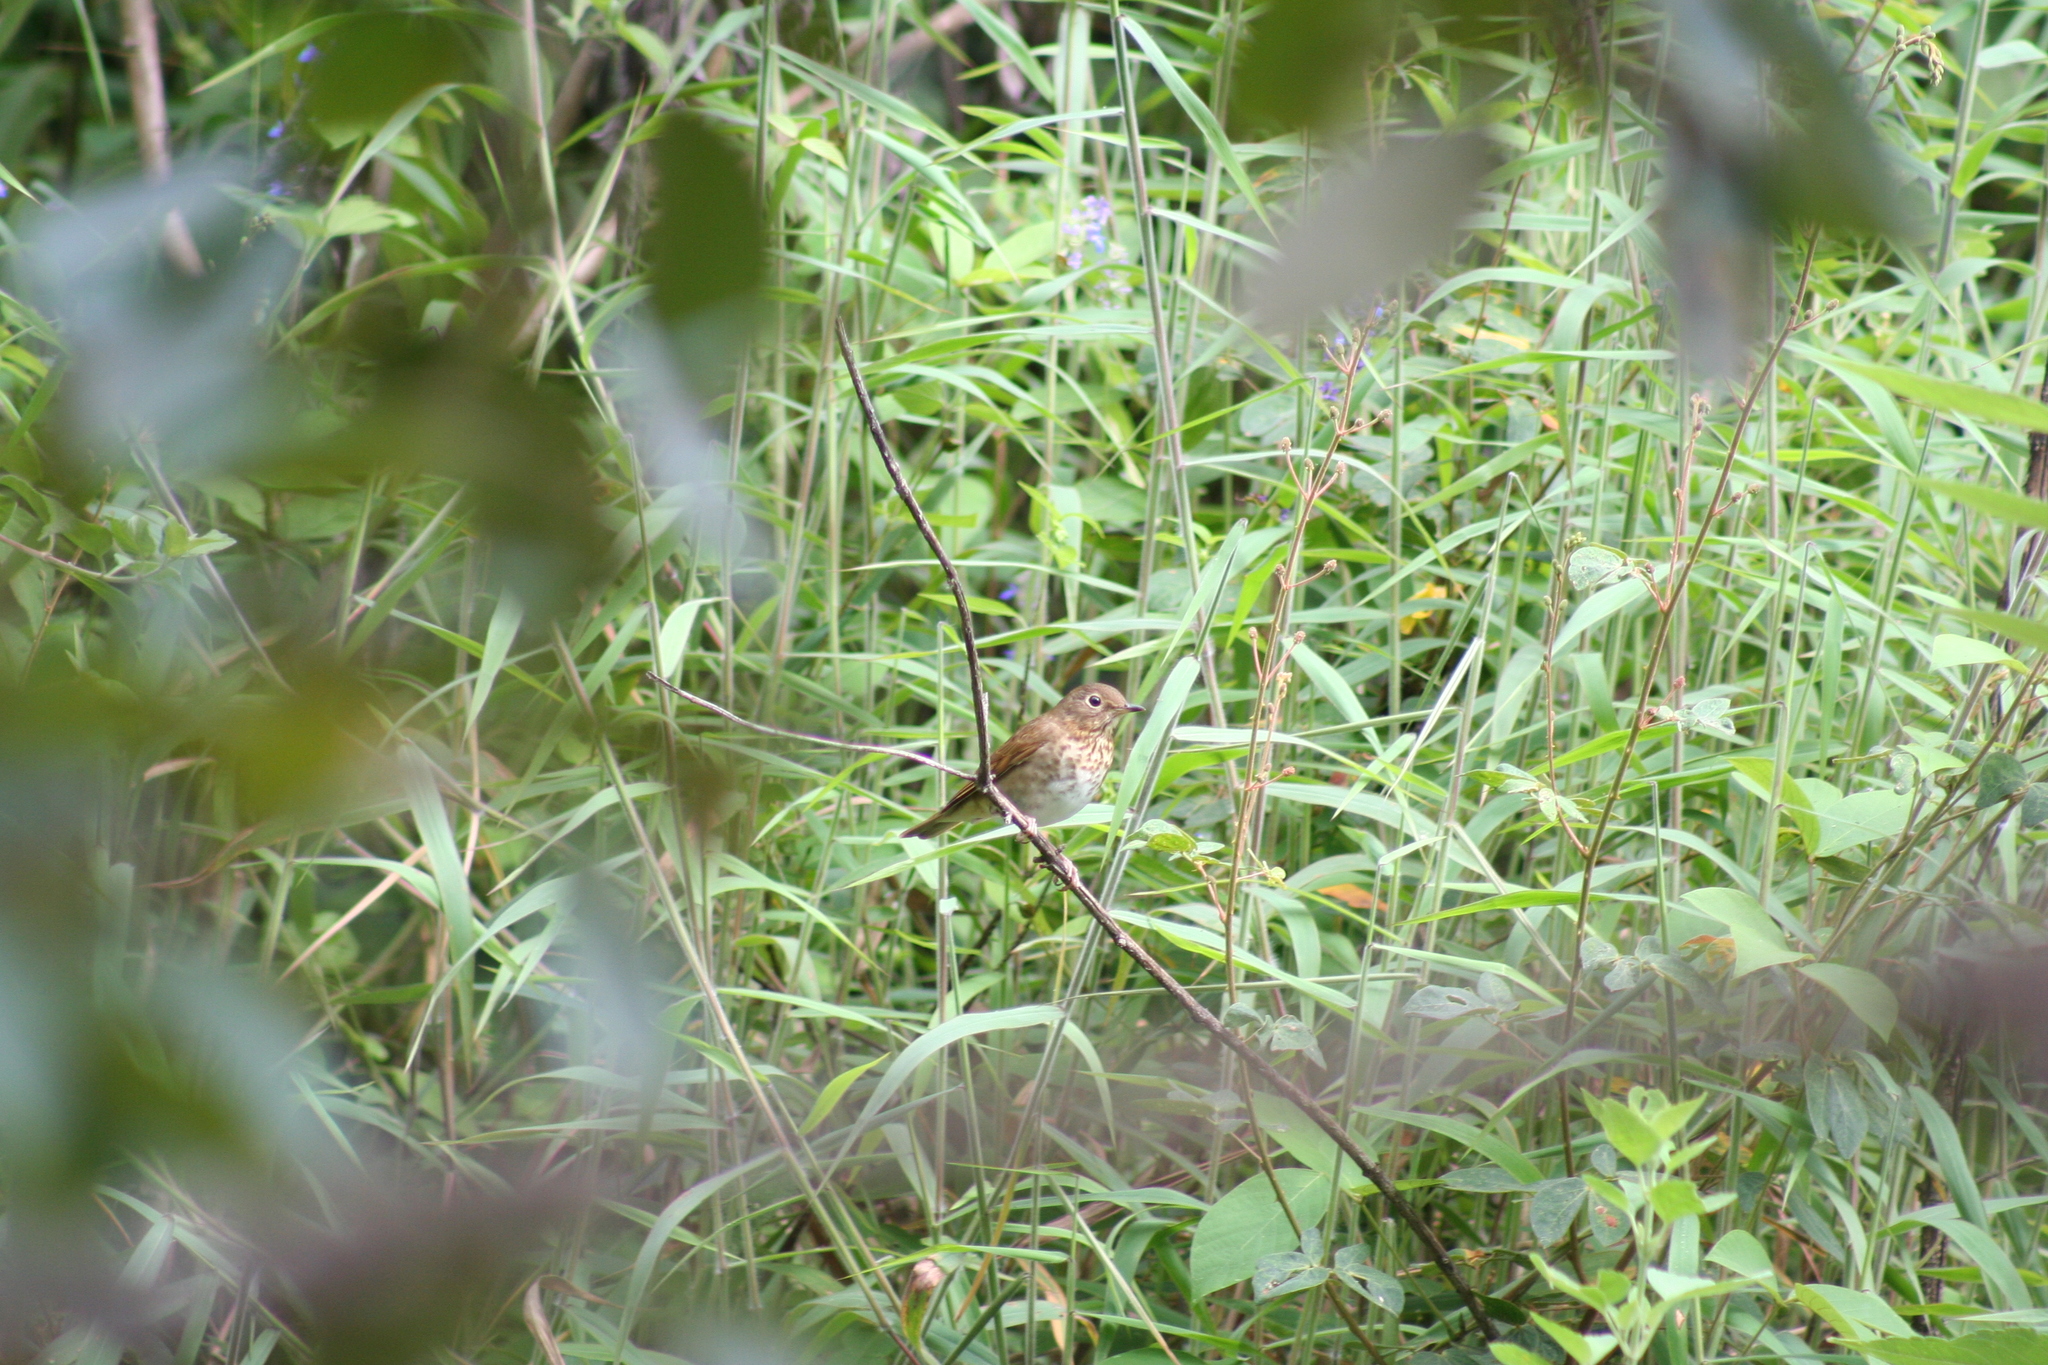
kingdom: Animalia
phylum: Chordata
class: Aves
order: Passeriformes
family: Turdidae
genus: Catharus
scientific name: Catharus ustulatus
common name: Swainson's thrush
